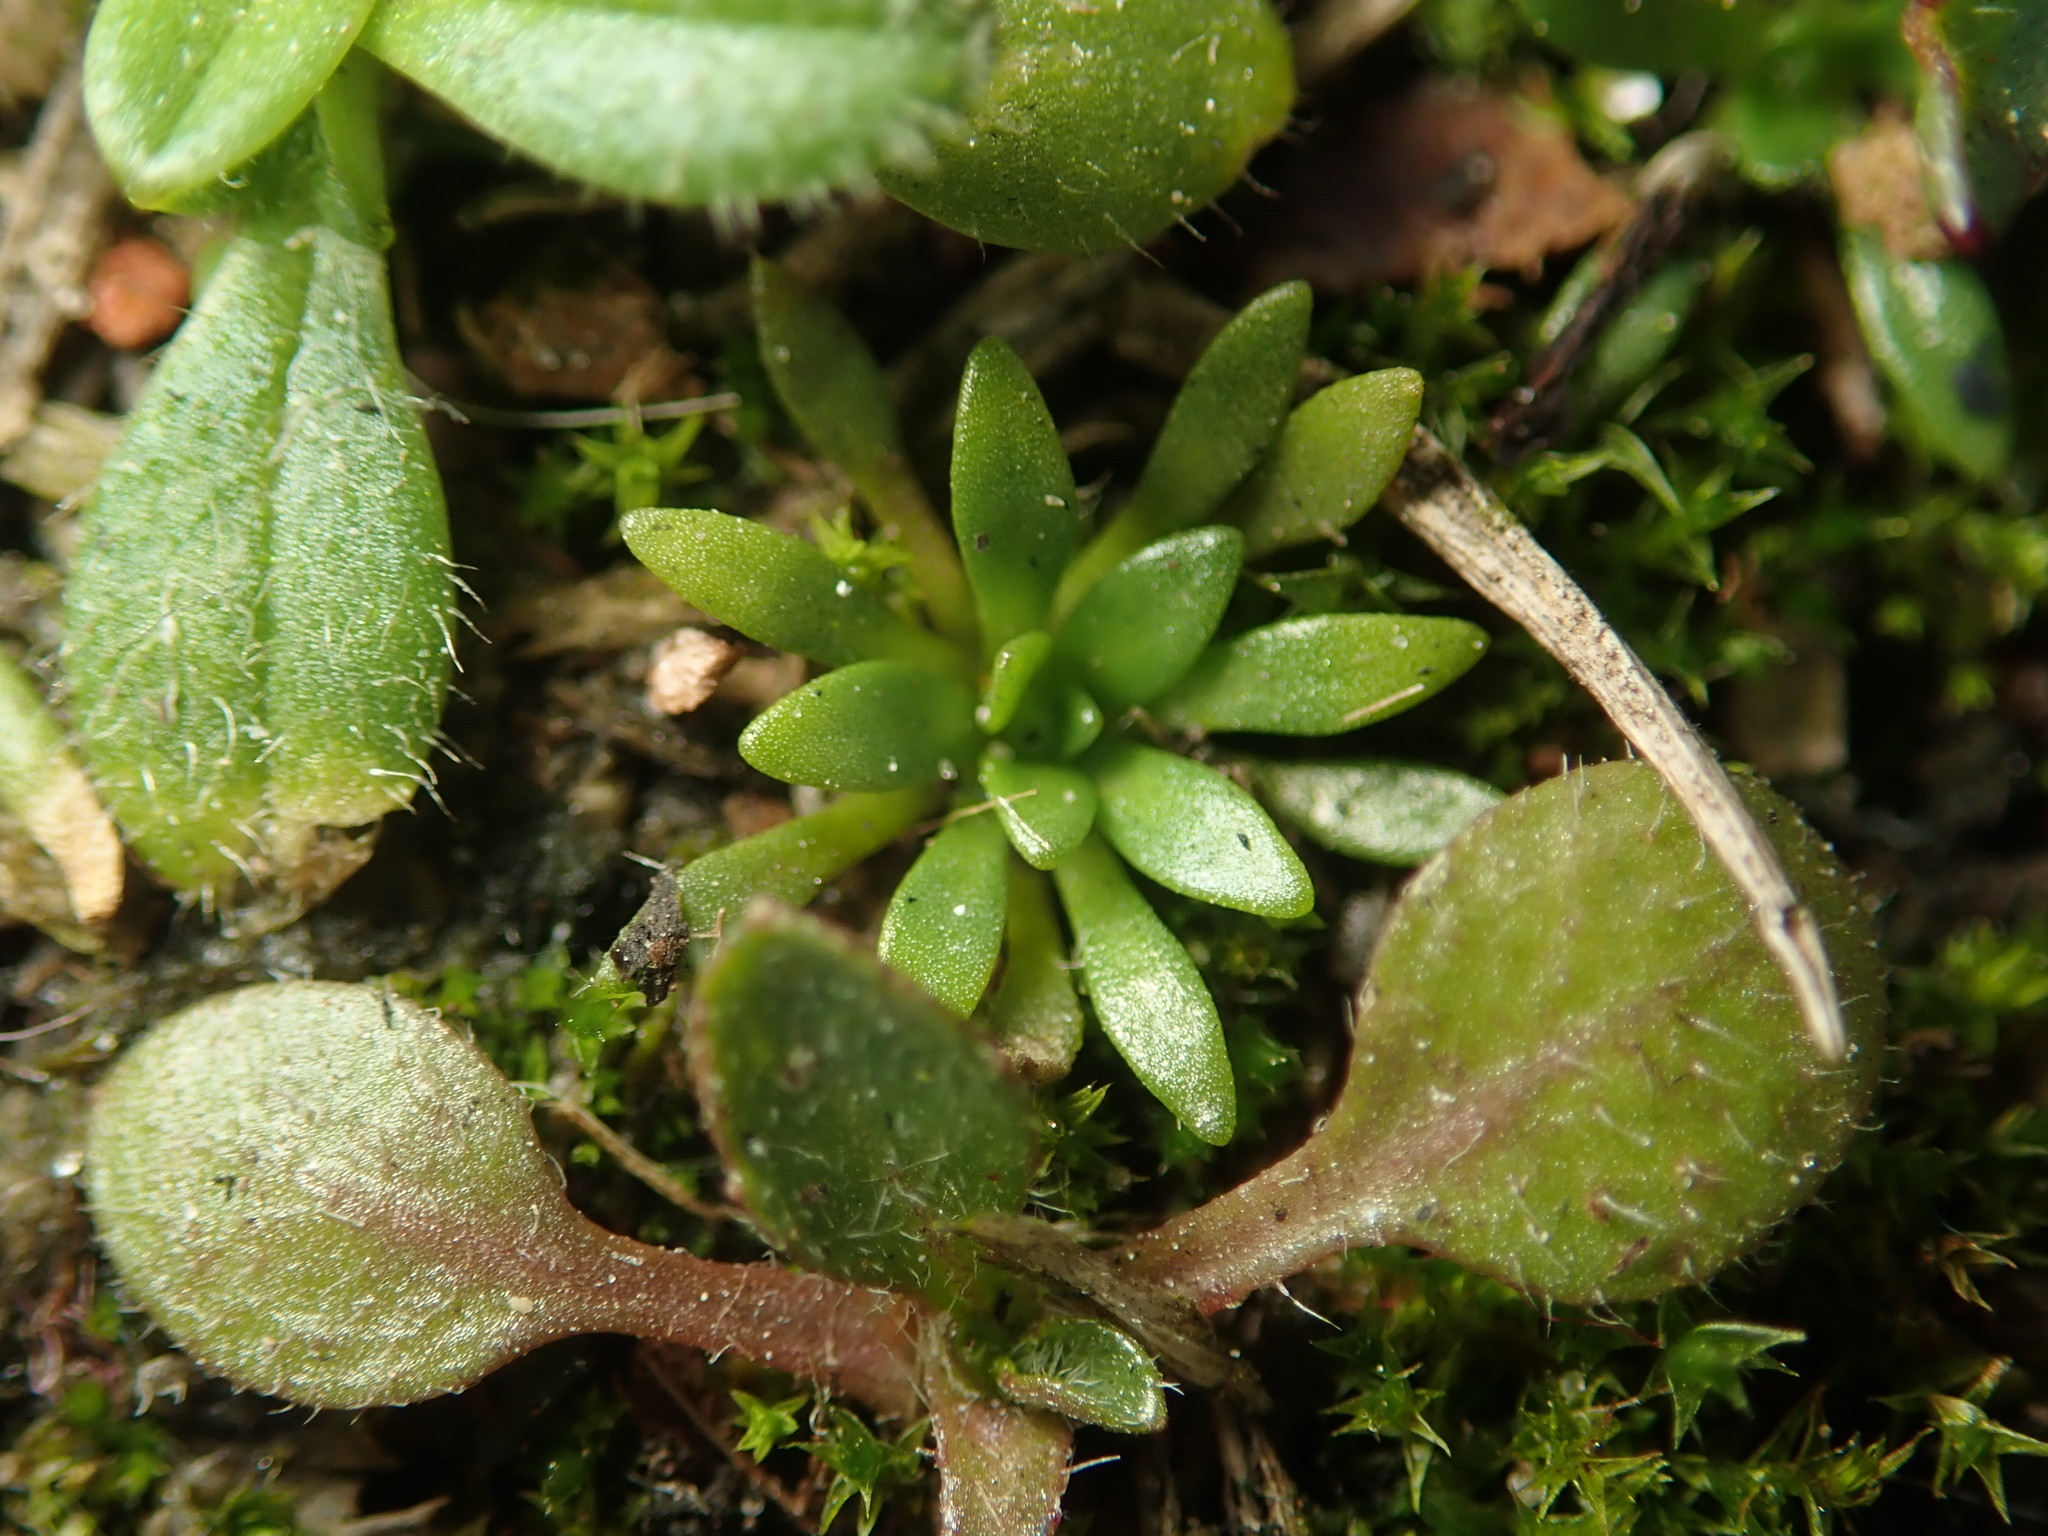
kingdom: Plantae
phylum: Tracheophyta
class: Magnoliopsida
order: Brassicales
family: Brassicaceae
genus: Draba
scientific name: Draba verna
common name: Spring draba
